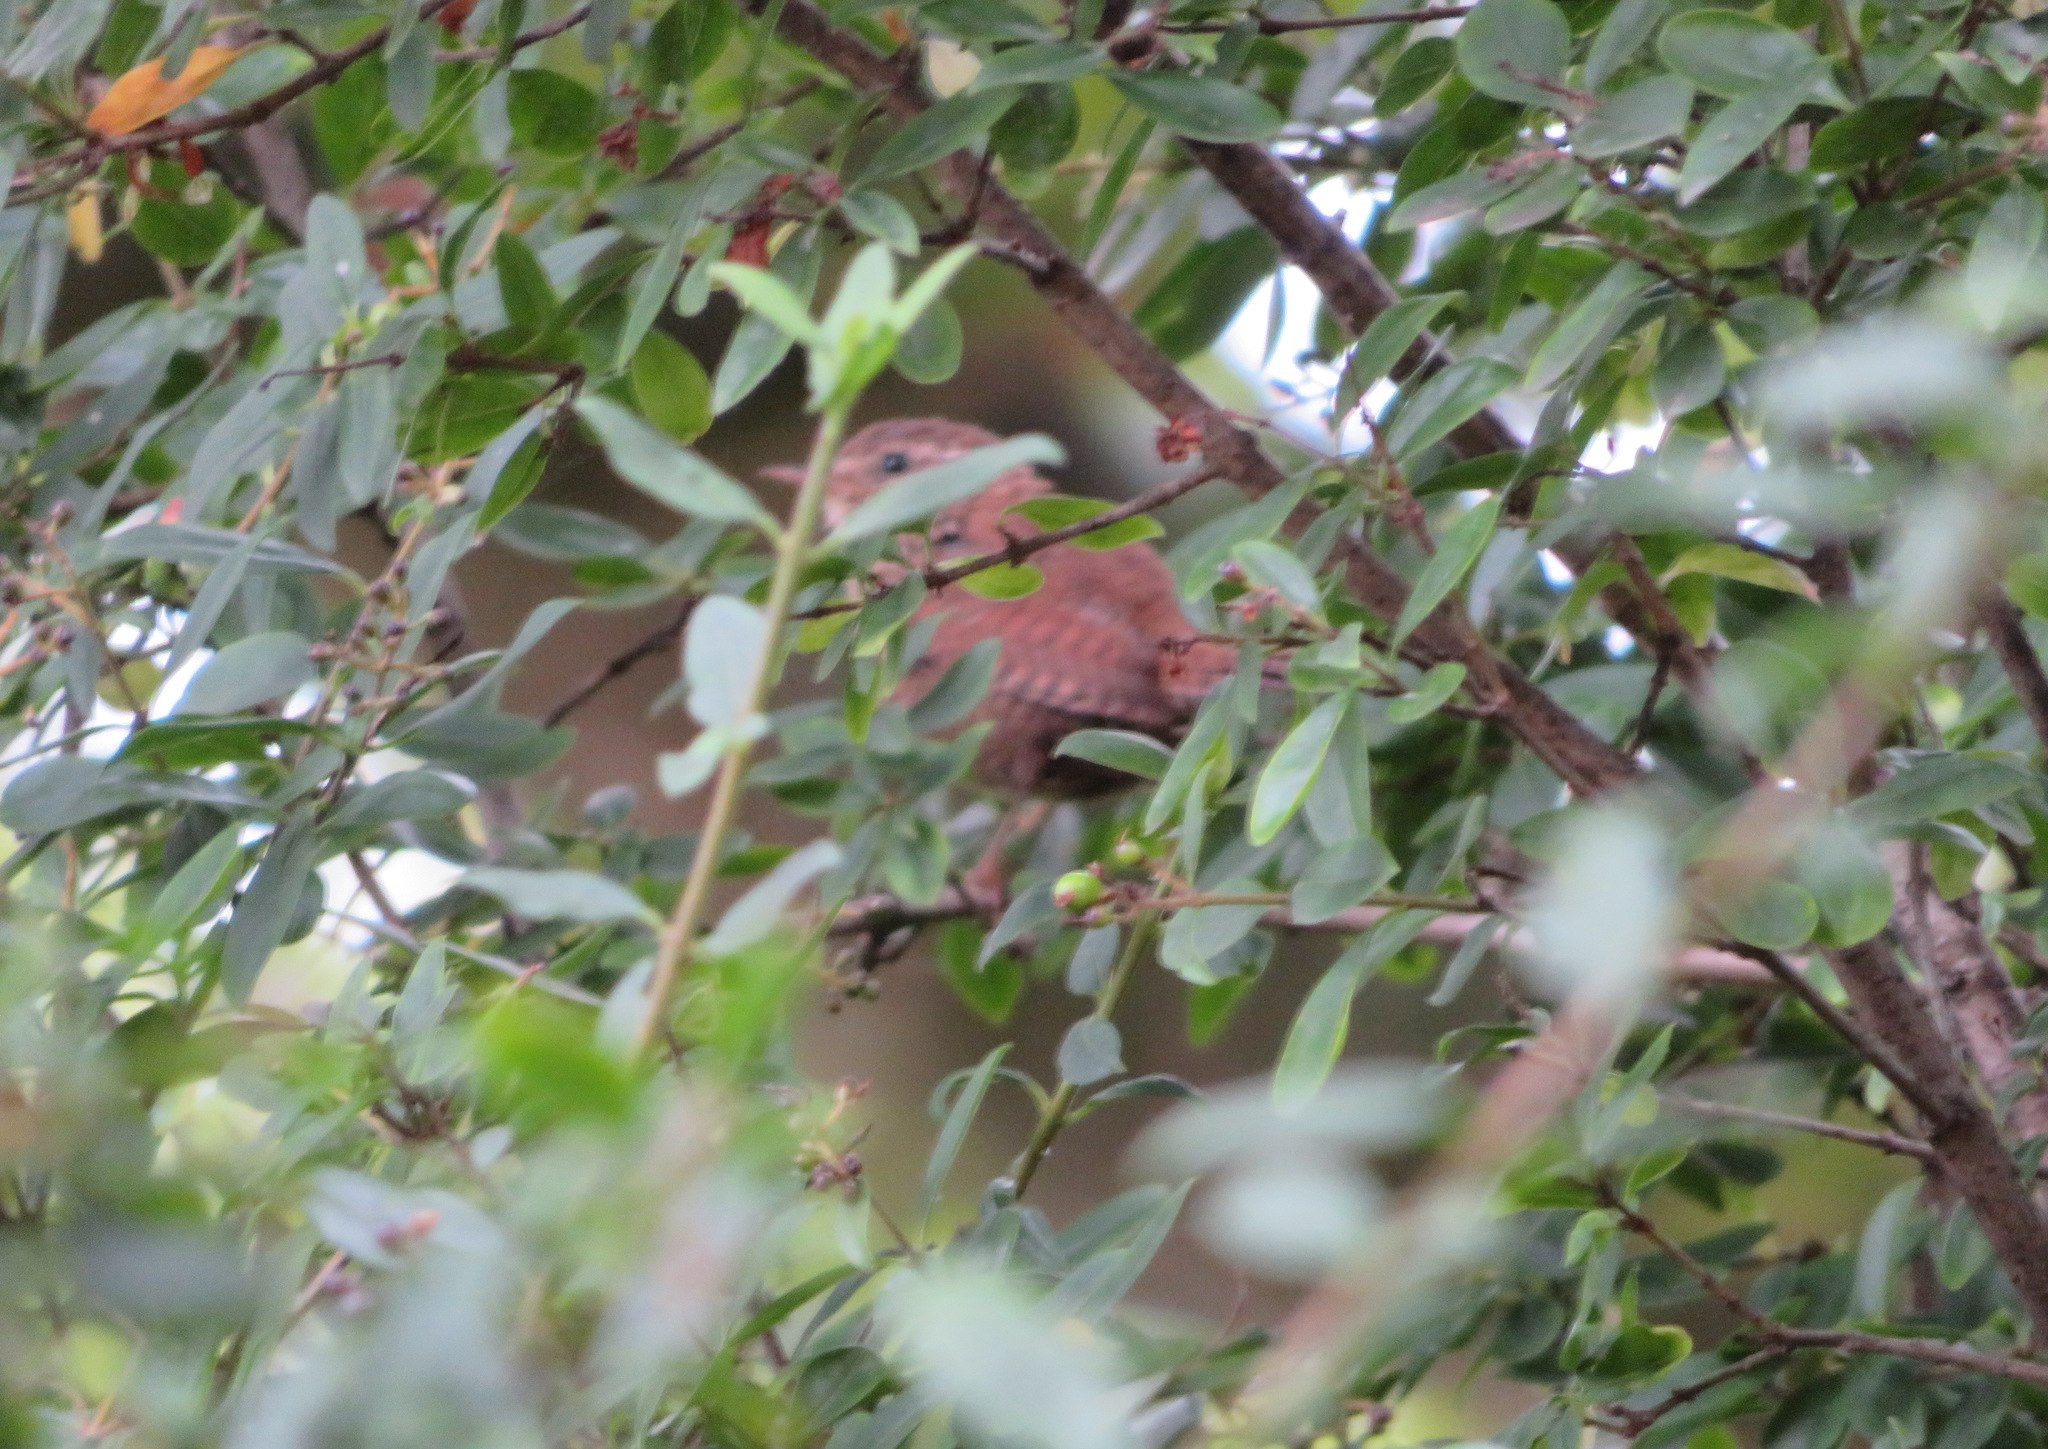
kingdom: Animalia
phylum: Chordata
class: Aves
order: Passeriformes
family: Troglodytidae
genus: Troglodytes
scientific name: Troglodytes troglodytes
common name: Eurasian wren
